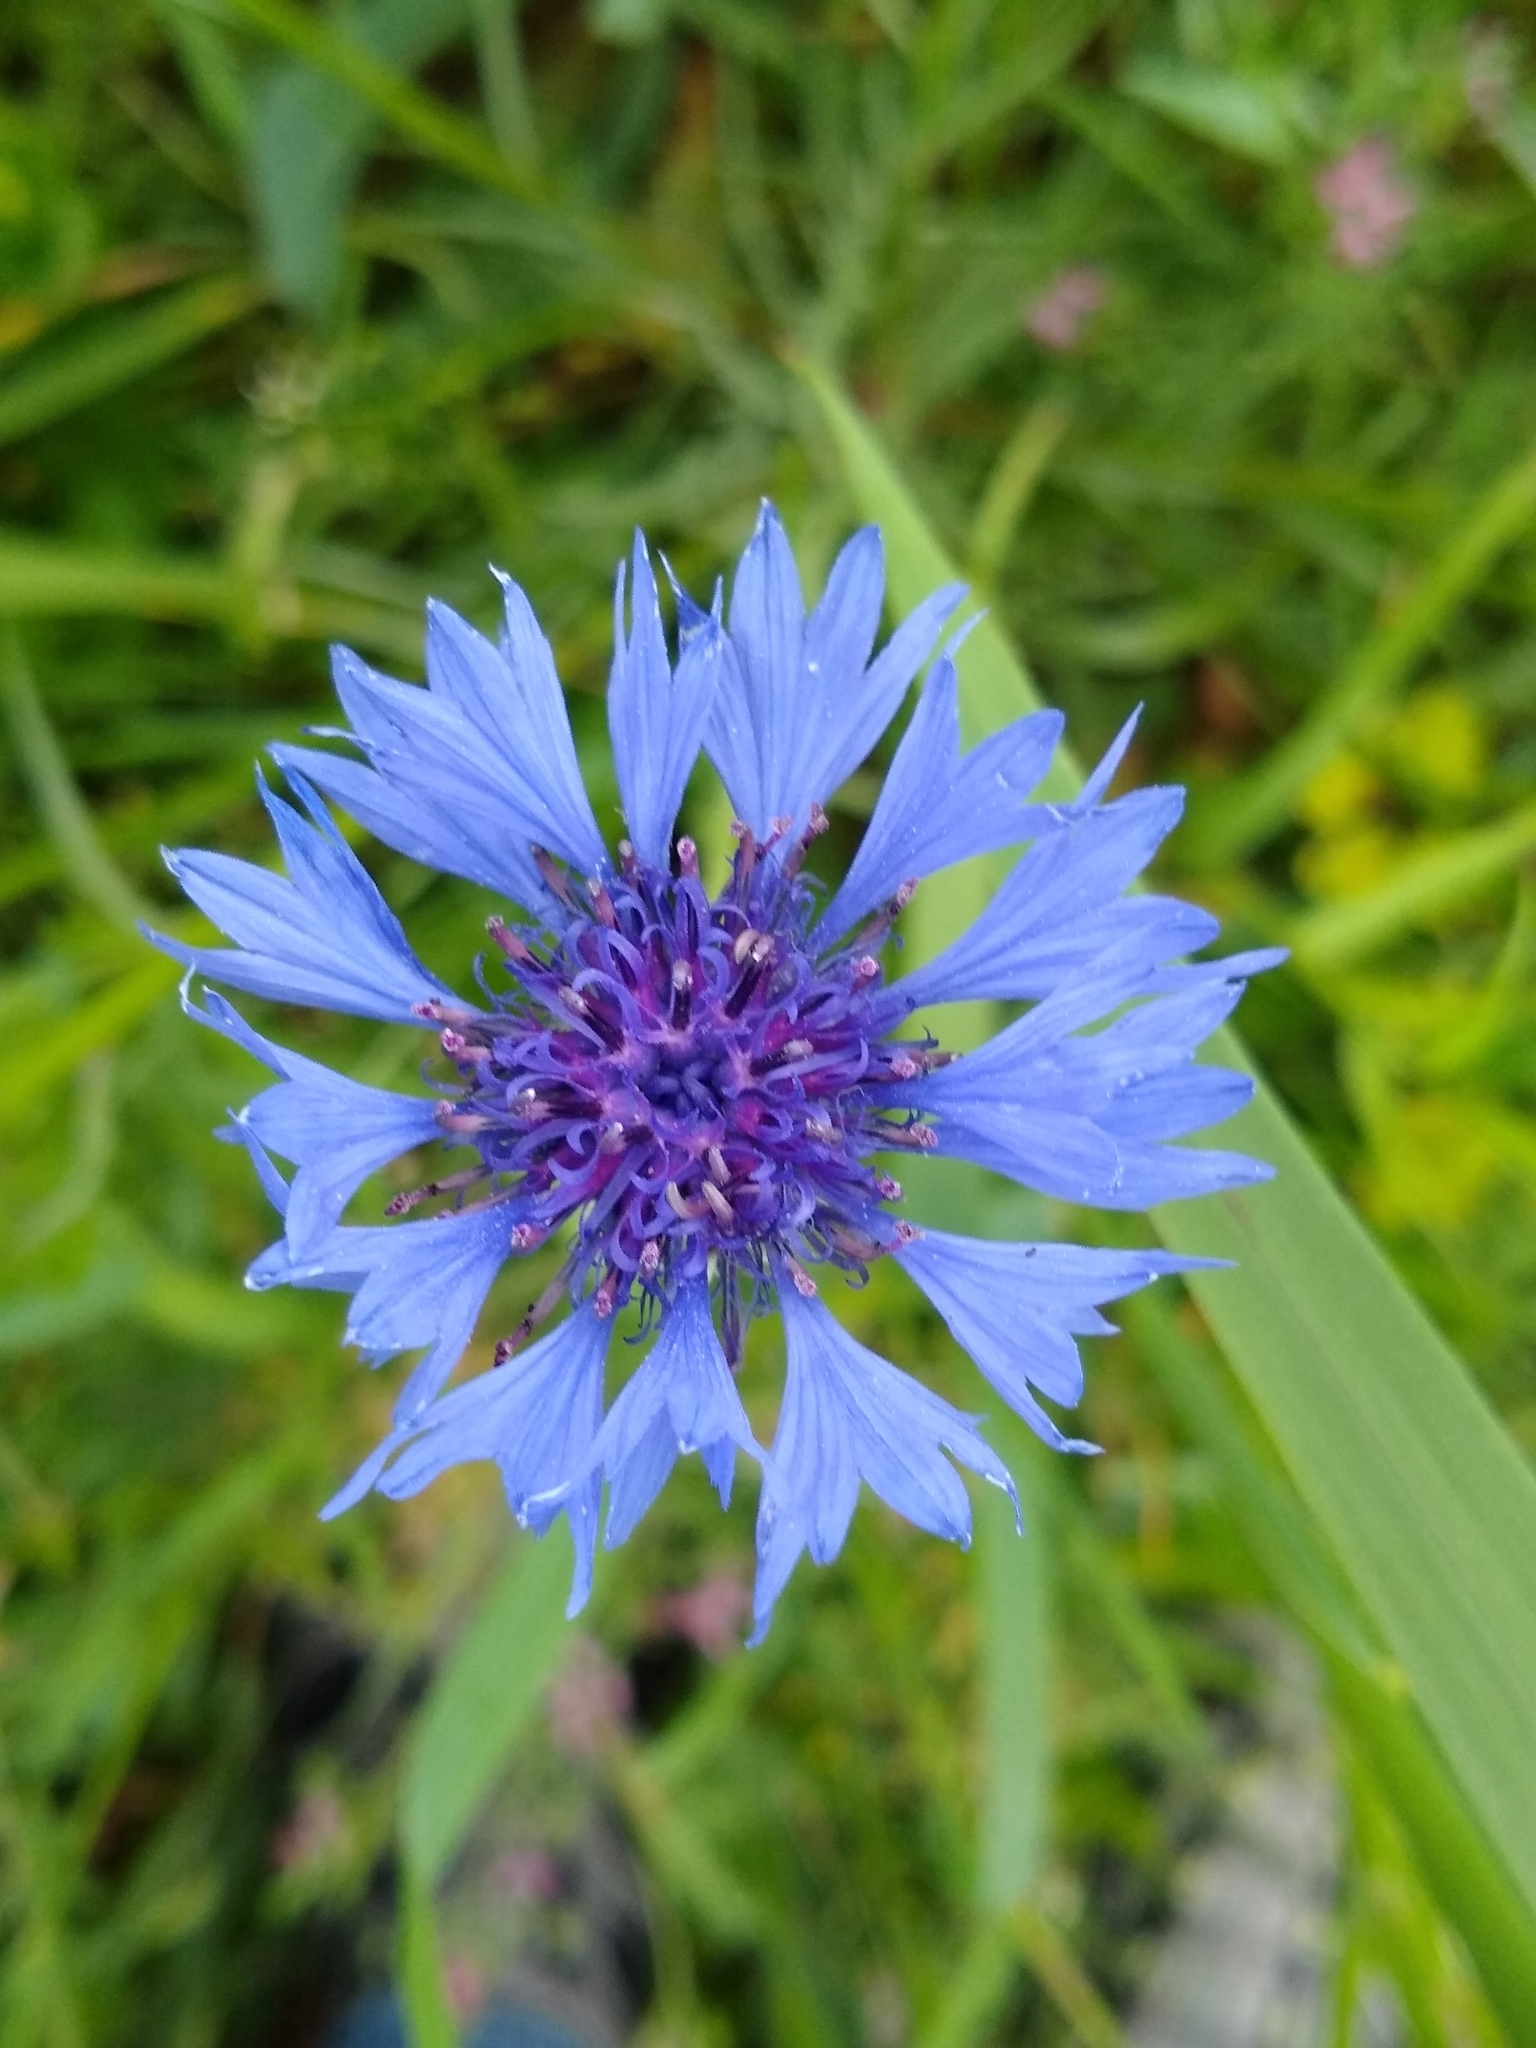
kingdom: Plantae
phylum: Tracheophyta
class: Magnoliopsida
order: Asterales
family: Asteraceae
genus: Centaurea
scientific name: Centaurea cyanus
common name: Cornflower
